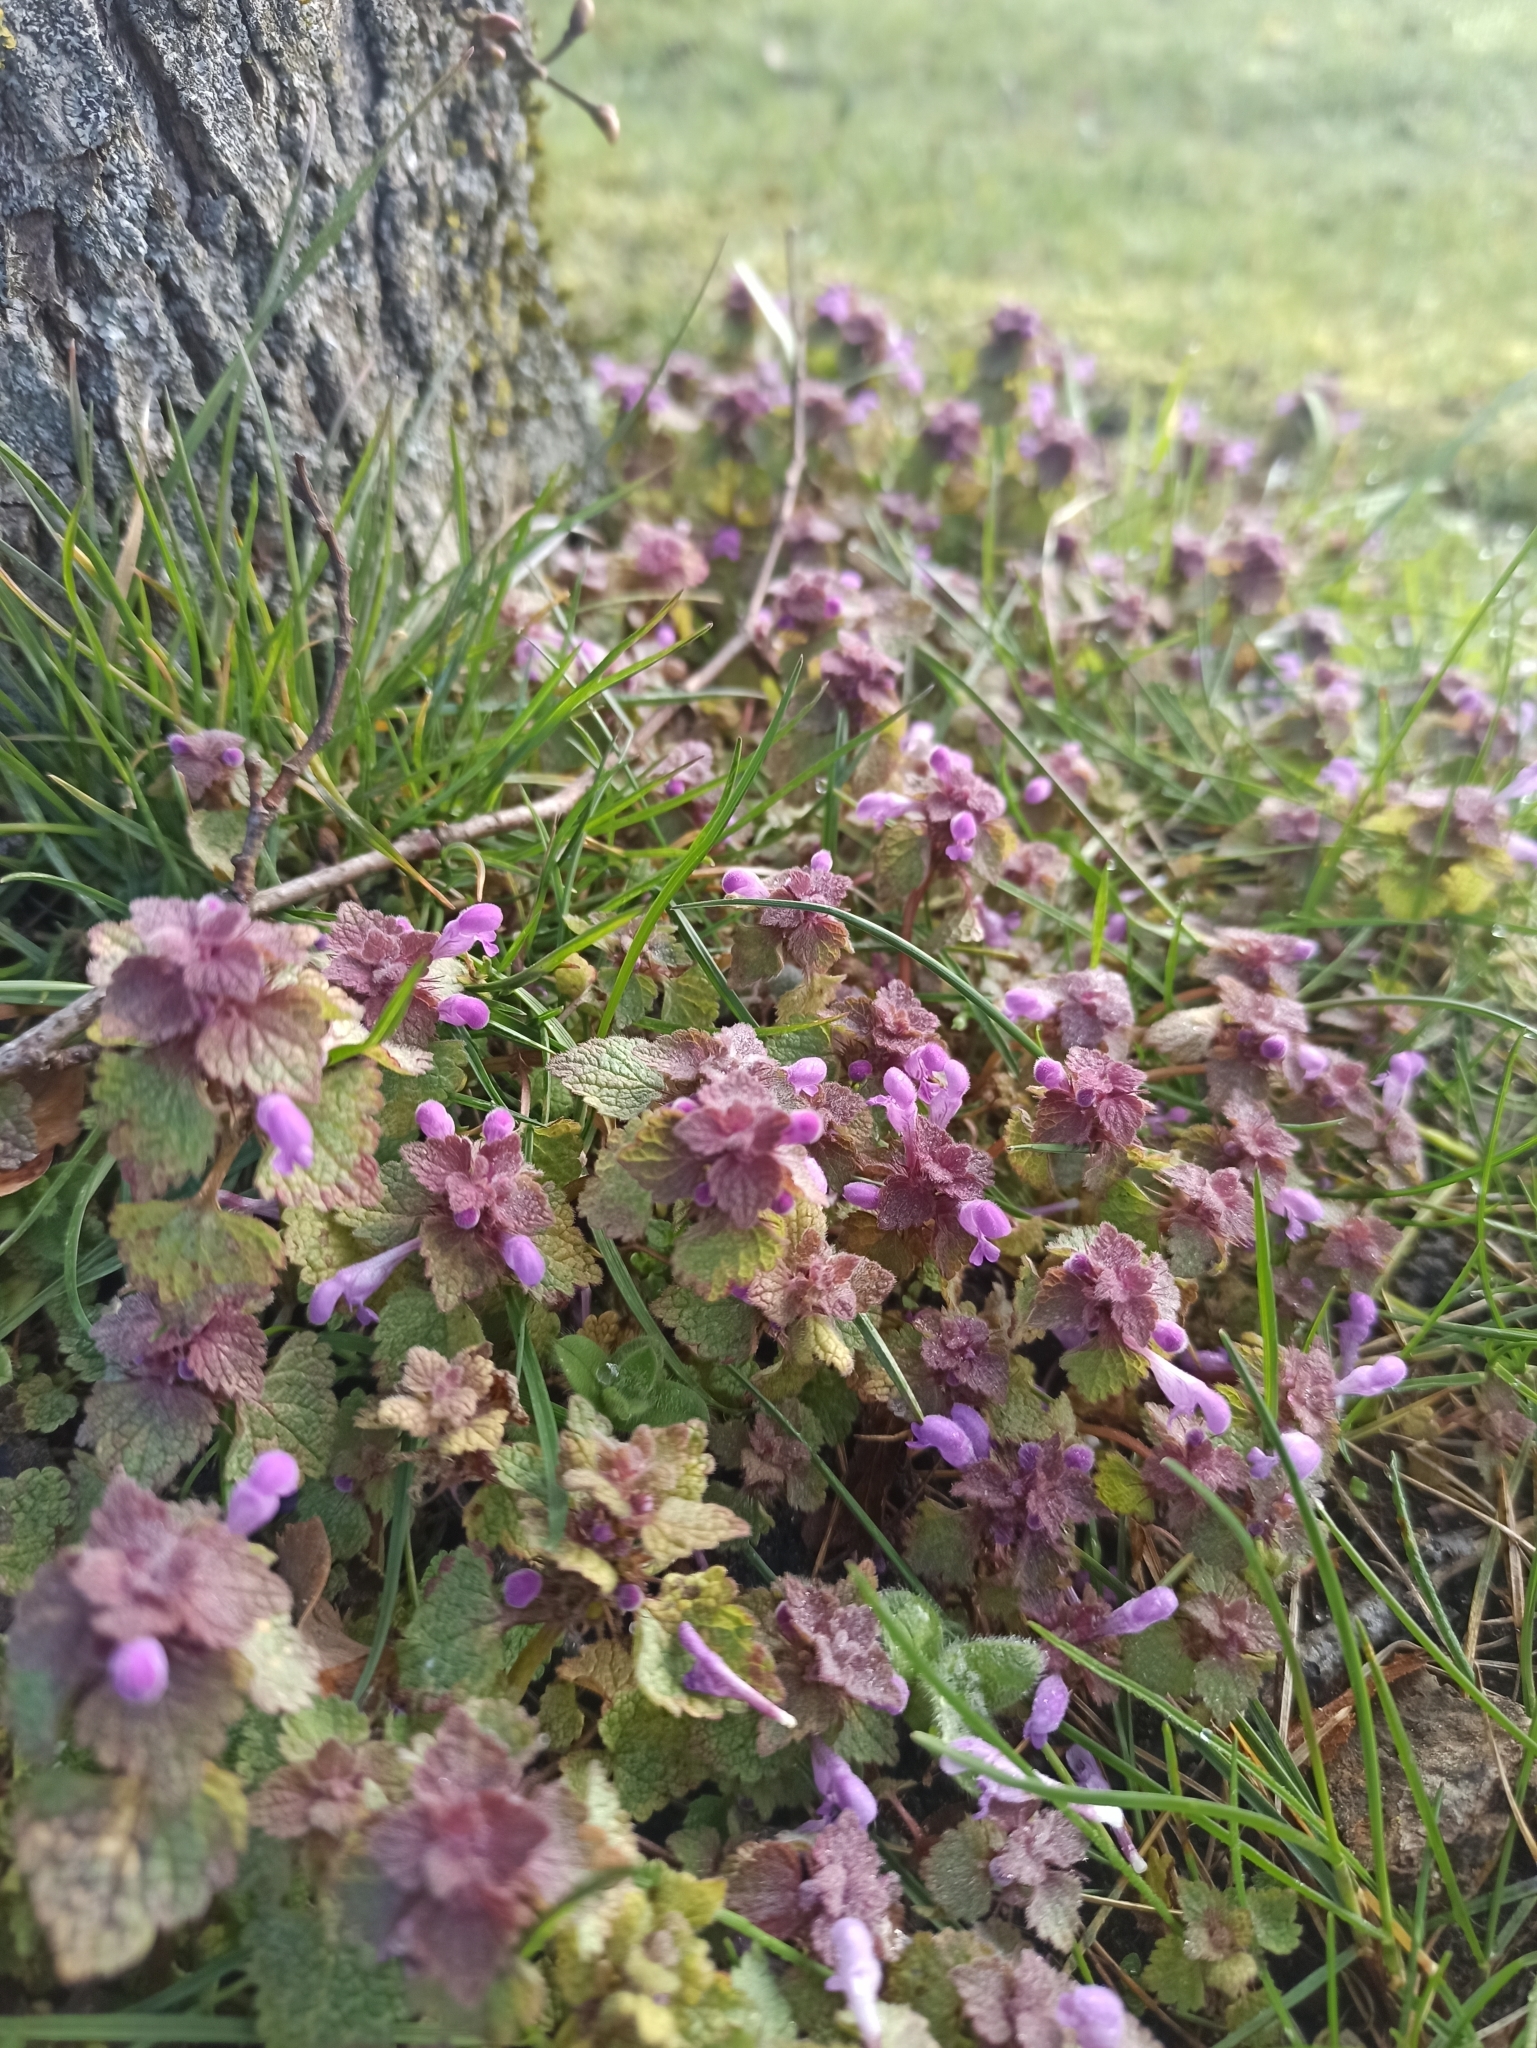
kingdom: Plantae
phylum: Tracheophyta
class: Magnoliopsida
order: Lamiales
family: Lamiaceae
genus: Lamium
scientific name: Lamium purpureum
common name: Red dead-nettle
